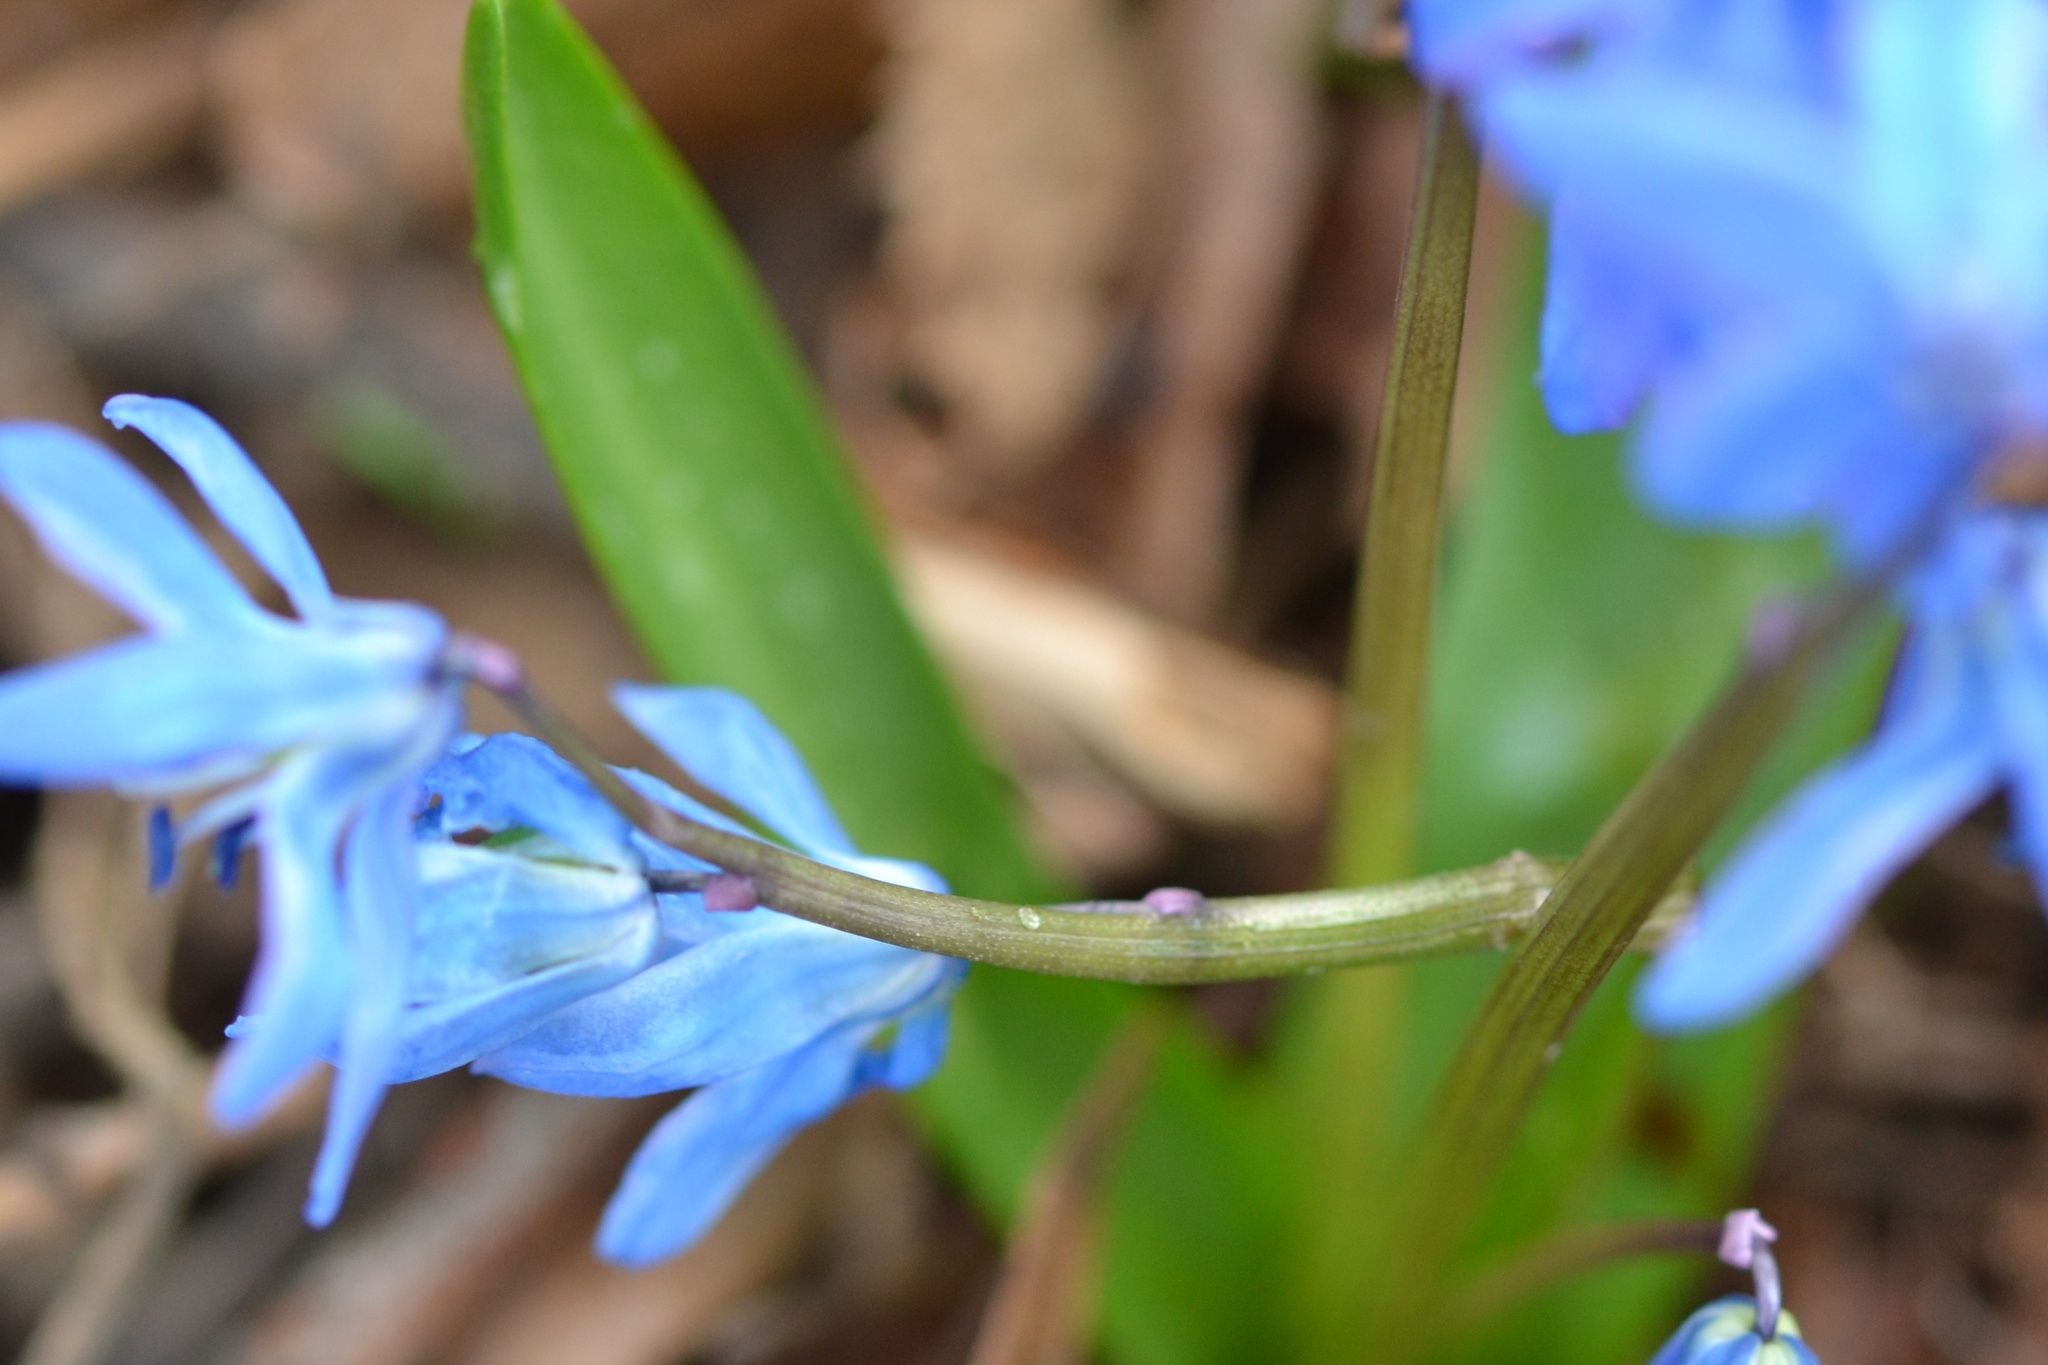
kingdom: Plantae
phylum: Tracheophyta
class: Liliopsida
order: Asparagales
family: Asparagaceae
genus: Scilla
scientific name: Scilla siberica
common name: Siberian squill
